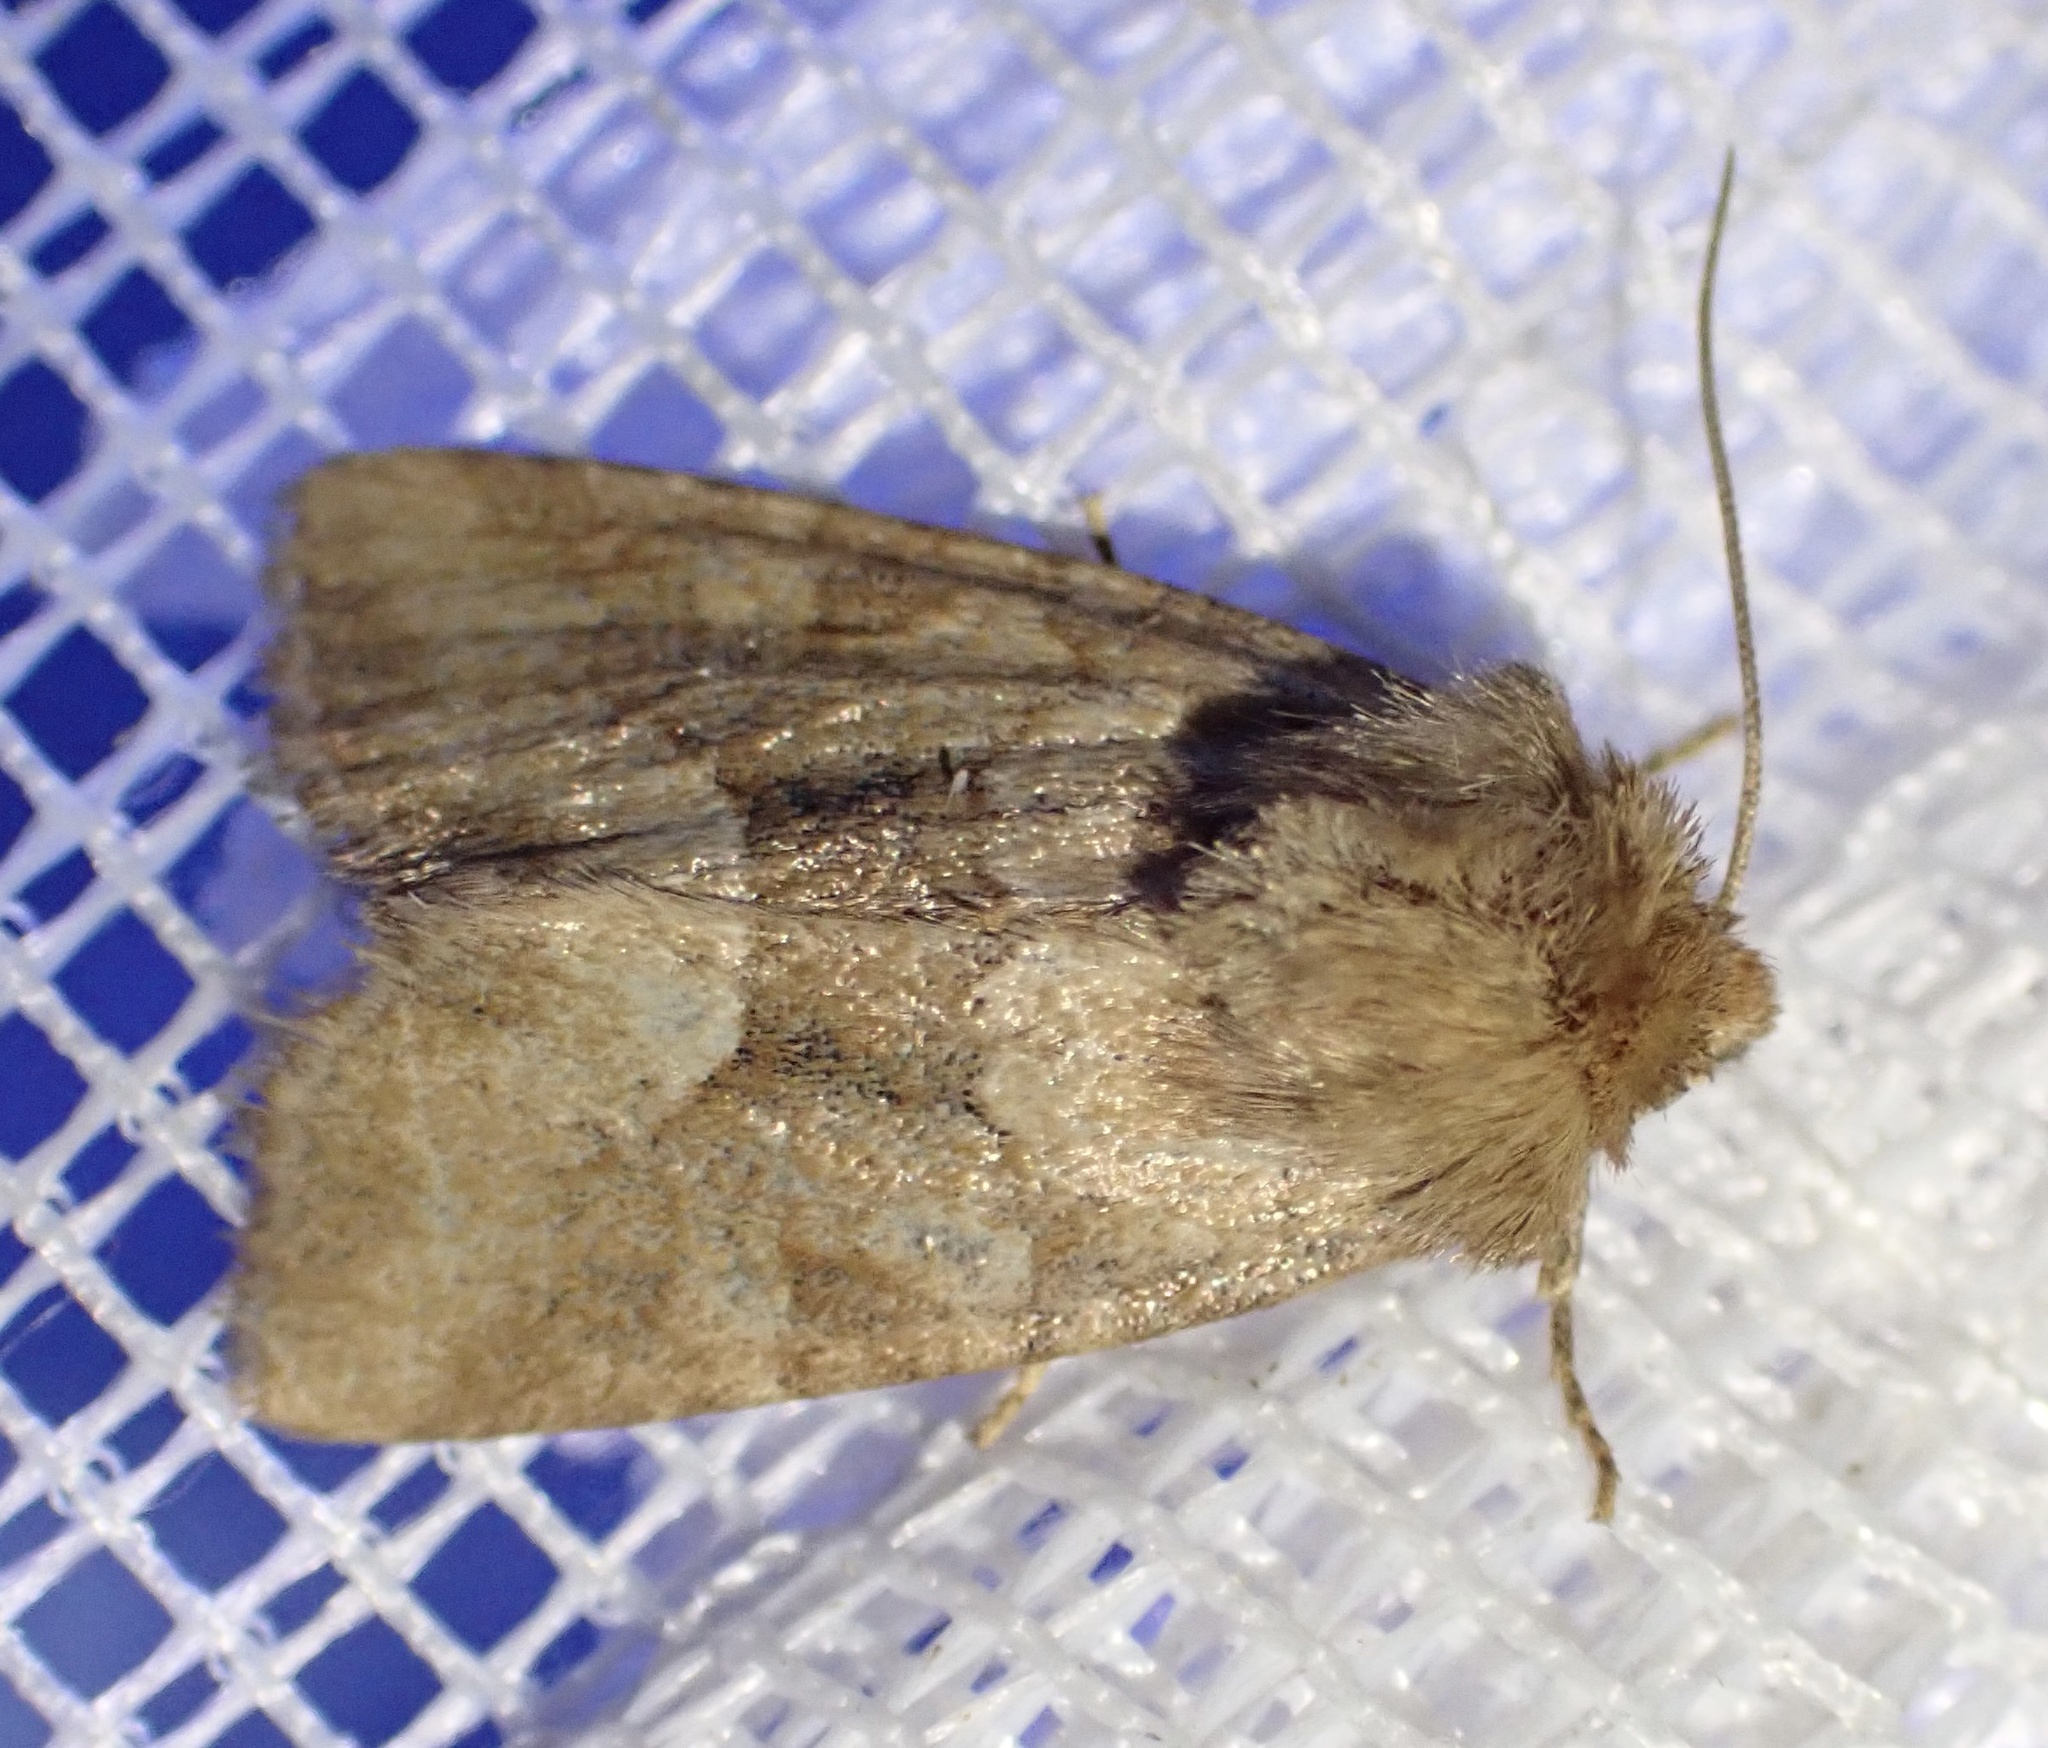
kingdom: Animalia
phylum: Arthropoda
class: Insecta
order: Lepidoptera
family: Noctuidae
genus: Oligia
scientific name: Oligia fasciuncula
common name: Middle-barred minor
